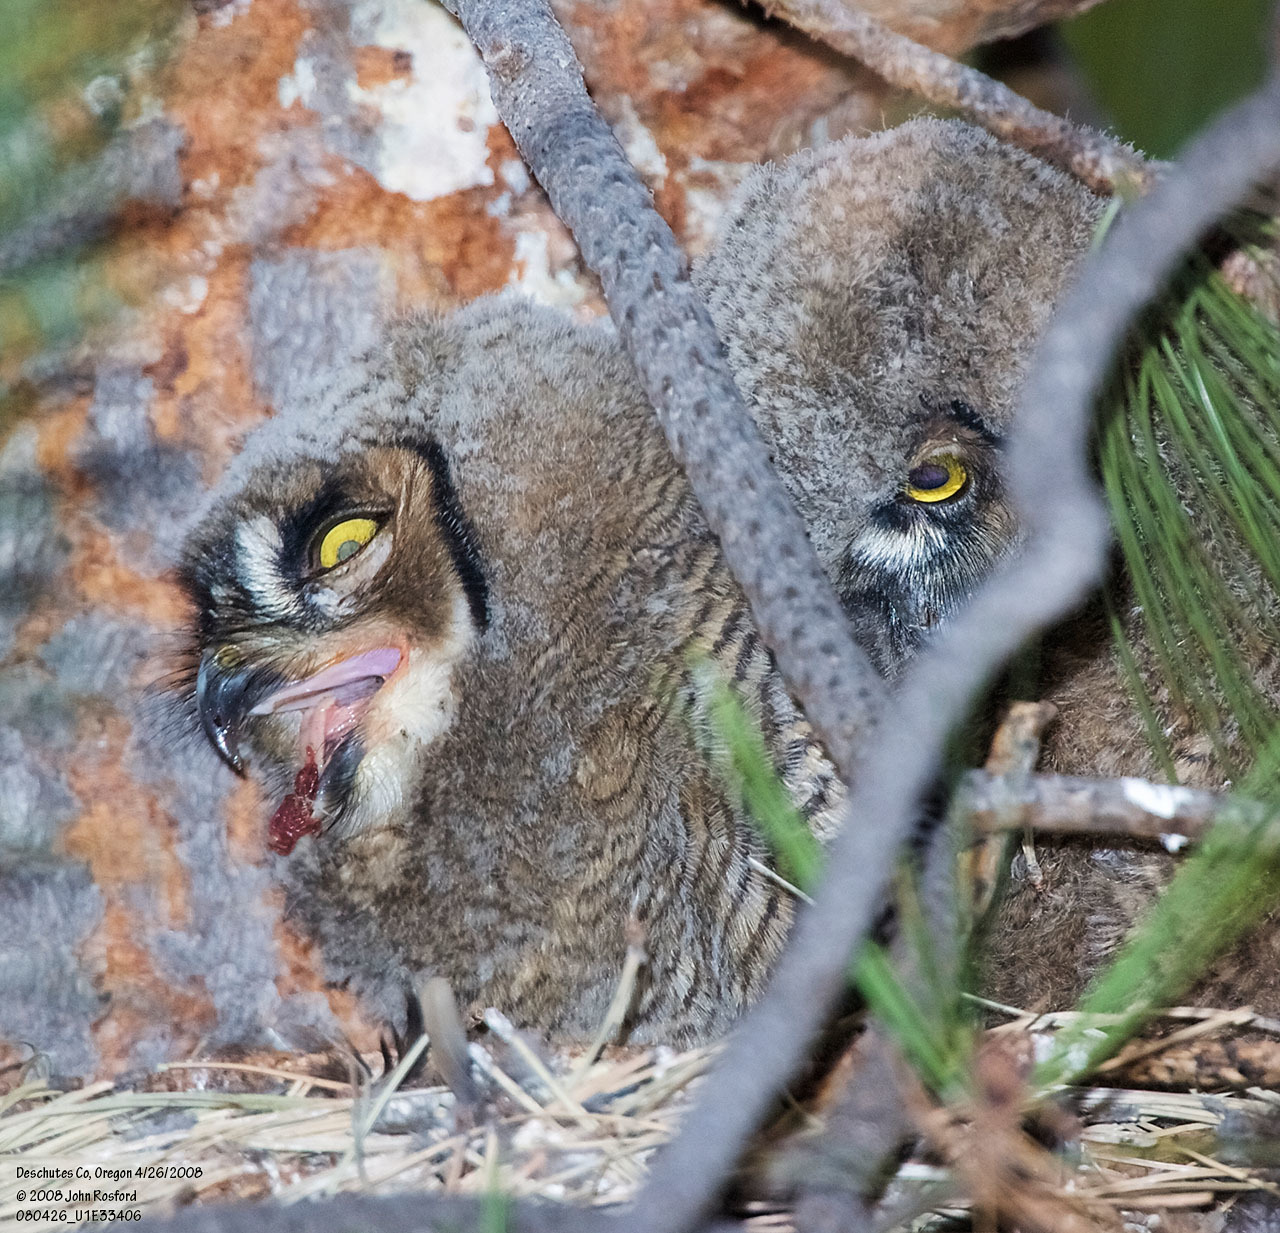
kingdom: Animalia
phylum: Chordata
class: Aves
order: Strigiformes
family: Strigidae
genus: Bubo
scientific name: Bubo virginianus
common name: Great horned owl
